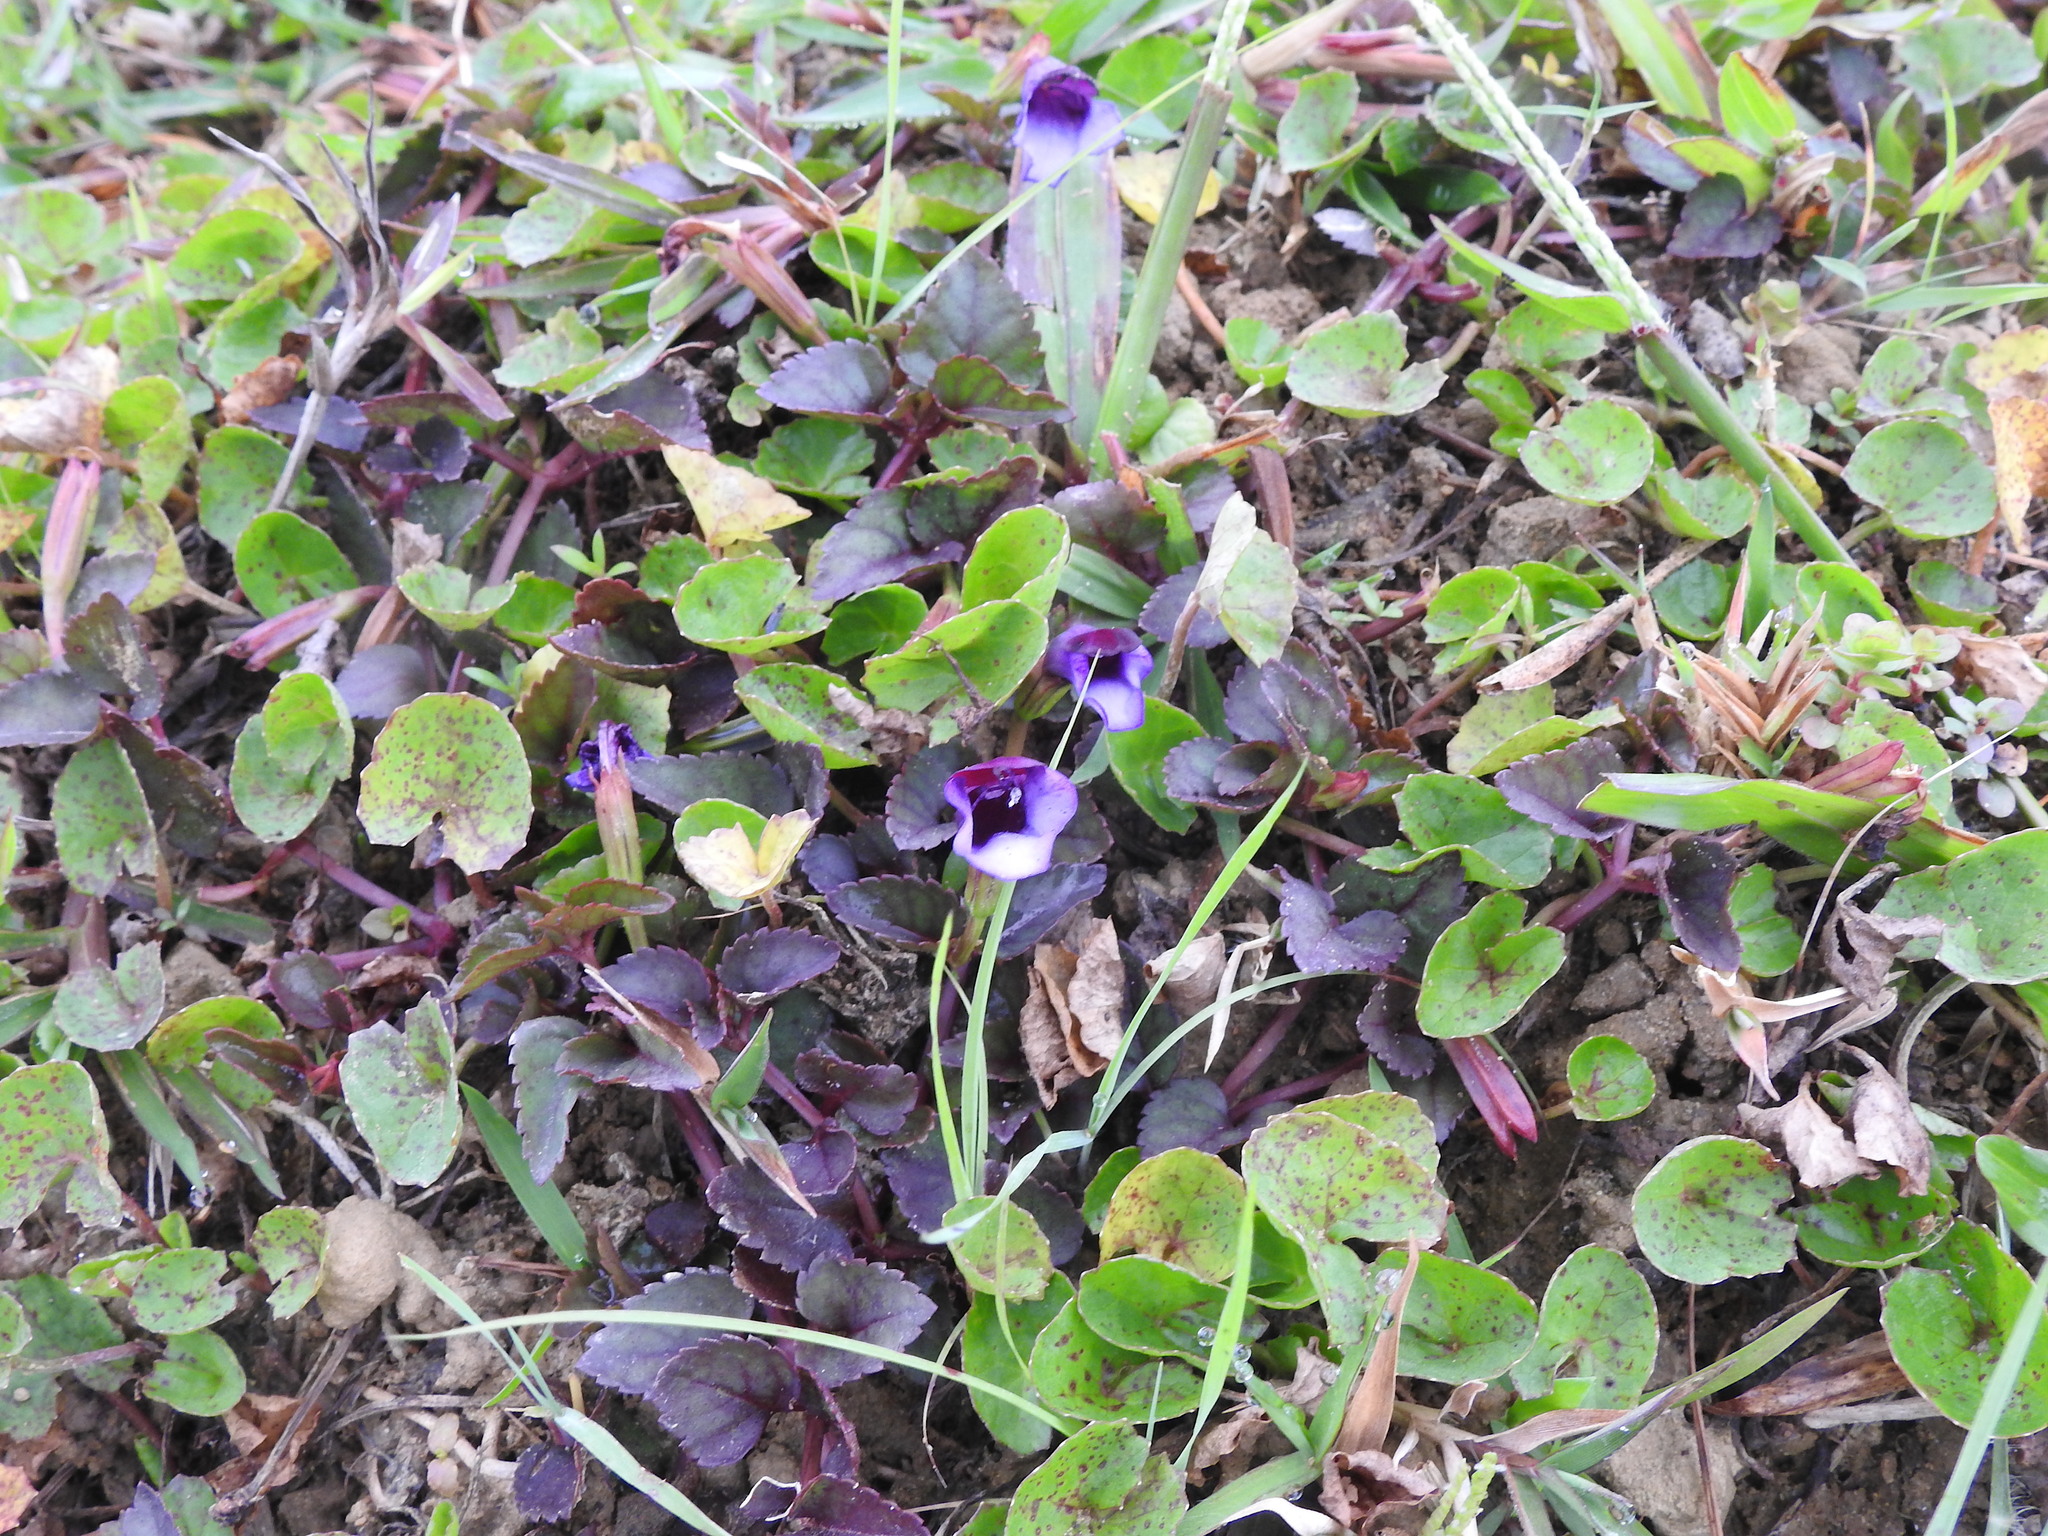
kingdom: Plantae
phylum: Tracheophyta
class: Magnoliopsida
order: Lamiales
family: Linderniaceae
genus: Torenia
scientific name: Torenia bicolor
